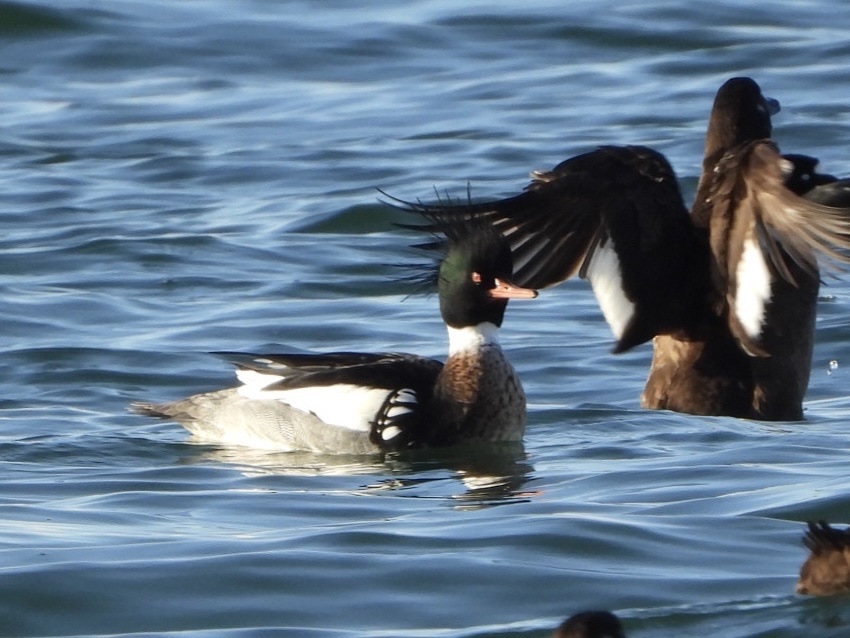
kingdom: Animalia
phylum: Chordata
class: Aves
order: Anseriformes
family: Anatidae
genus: Mergus
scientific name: Mergus serrator
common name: Red-breasted merganser
